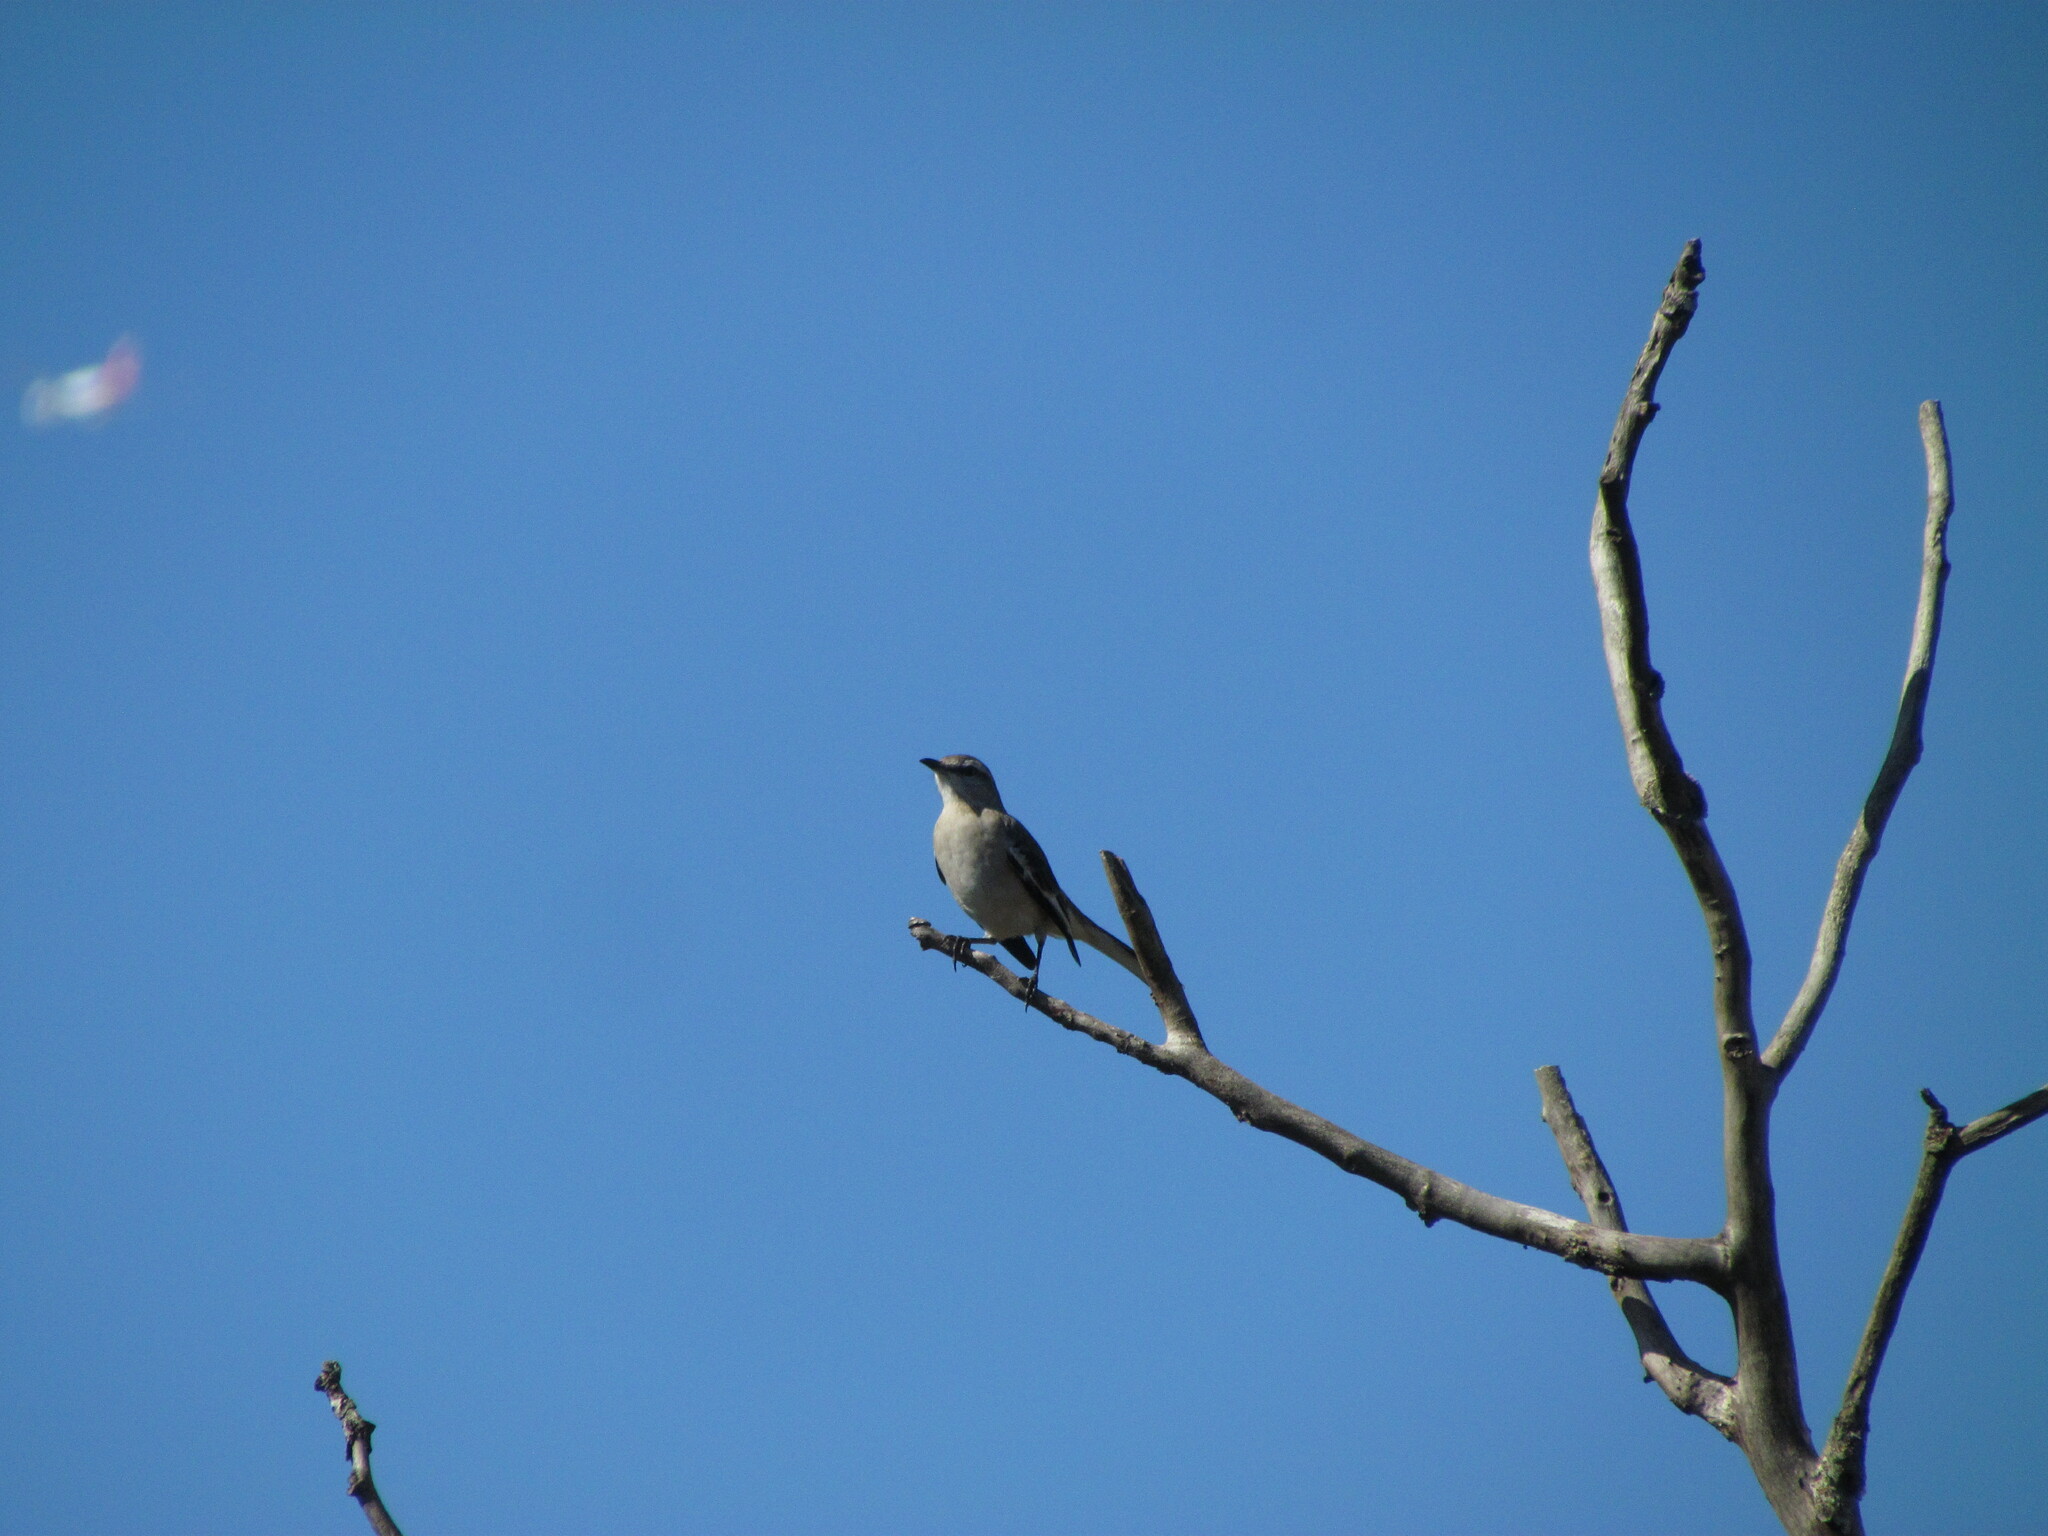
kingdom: Animalia
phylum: Chordata
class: Aves
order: Passeriformes
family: Mimidae
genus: Mimus
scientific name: Mimus triurus
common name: White-banded mockingbird
